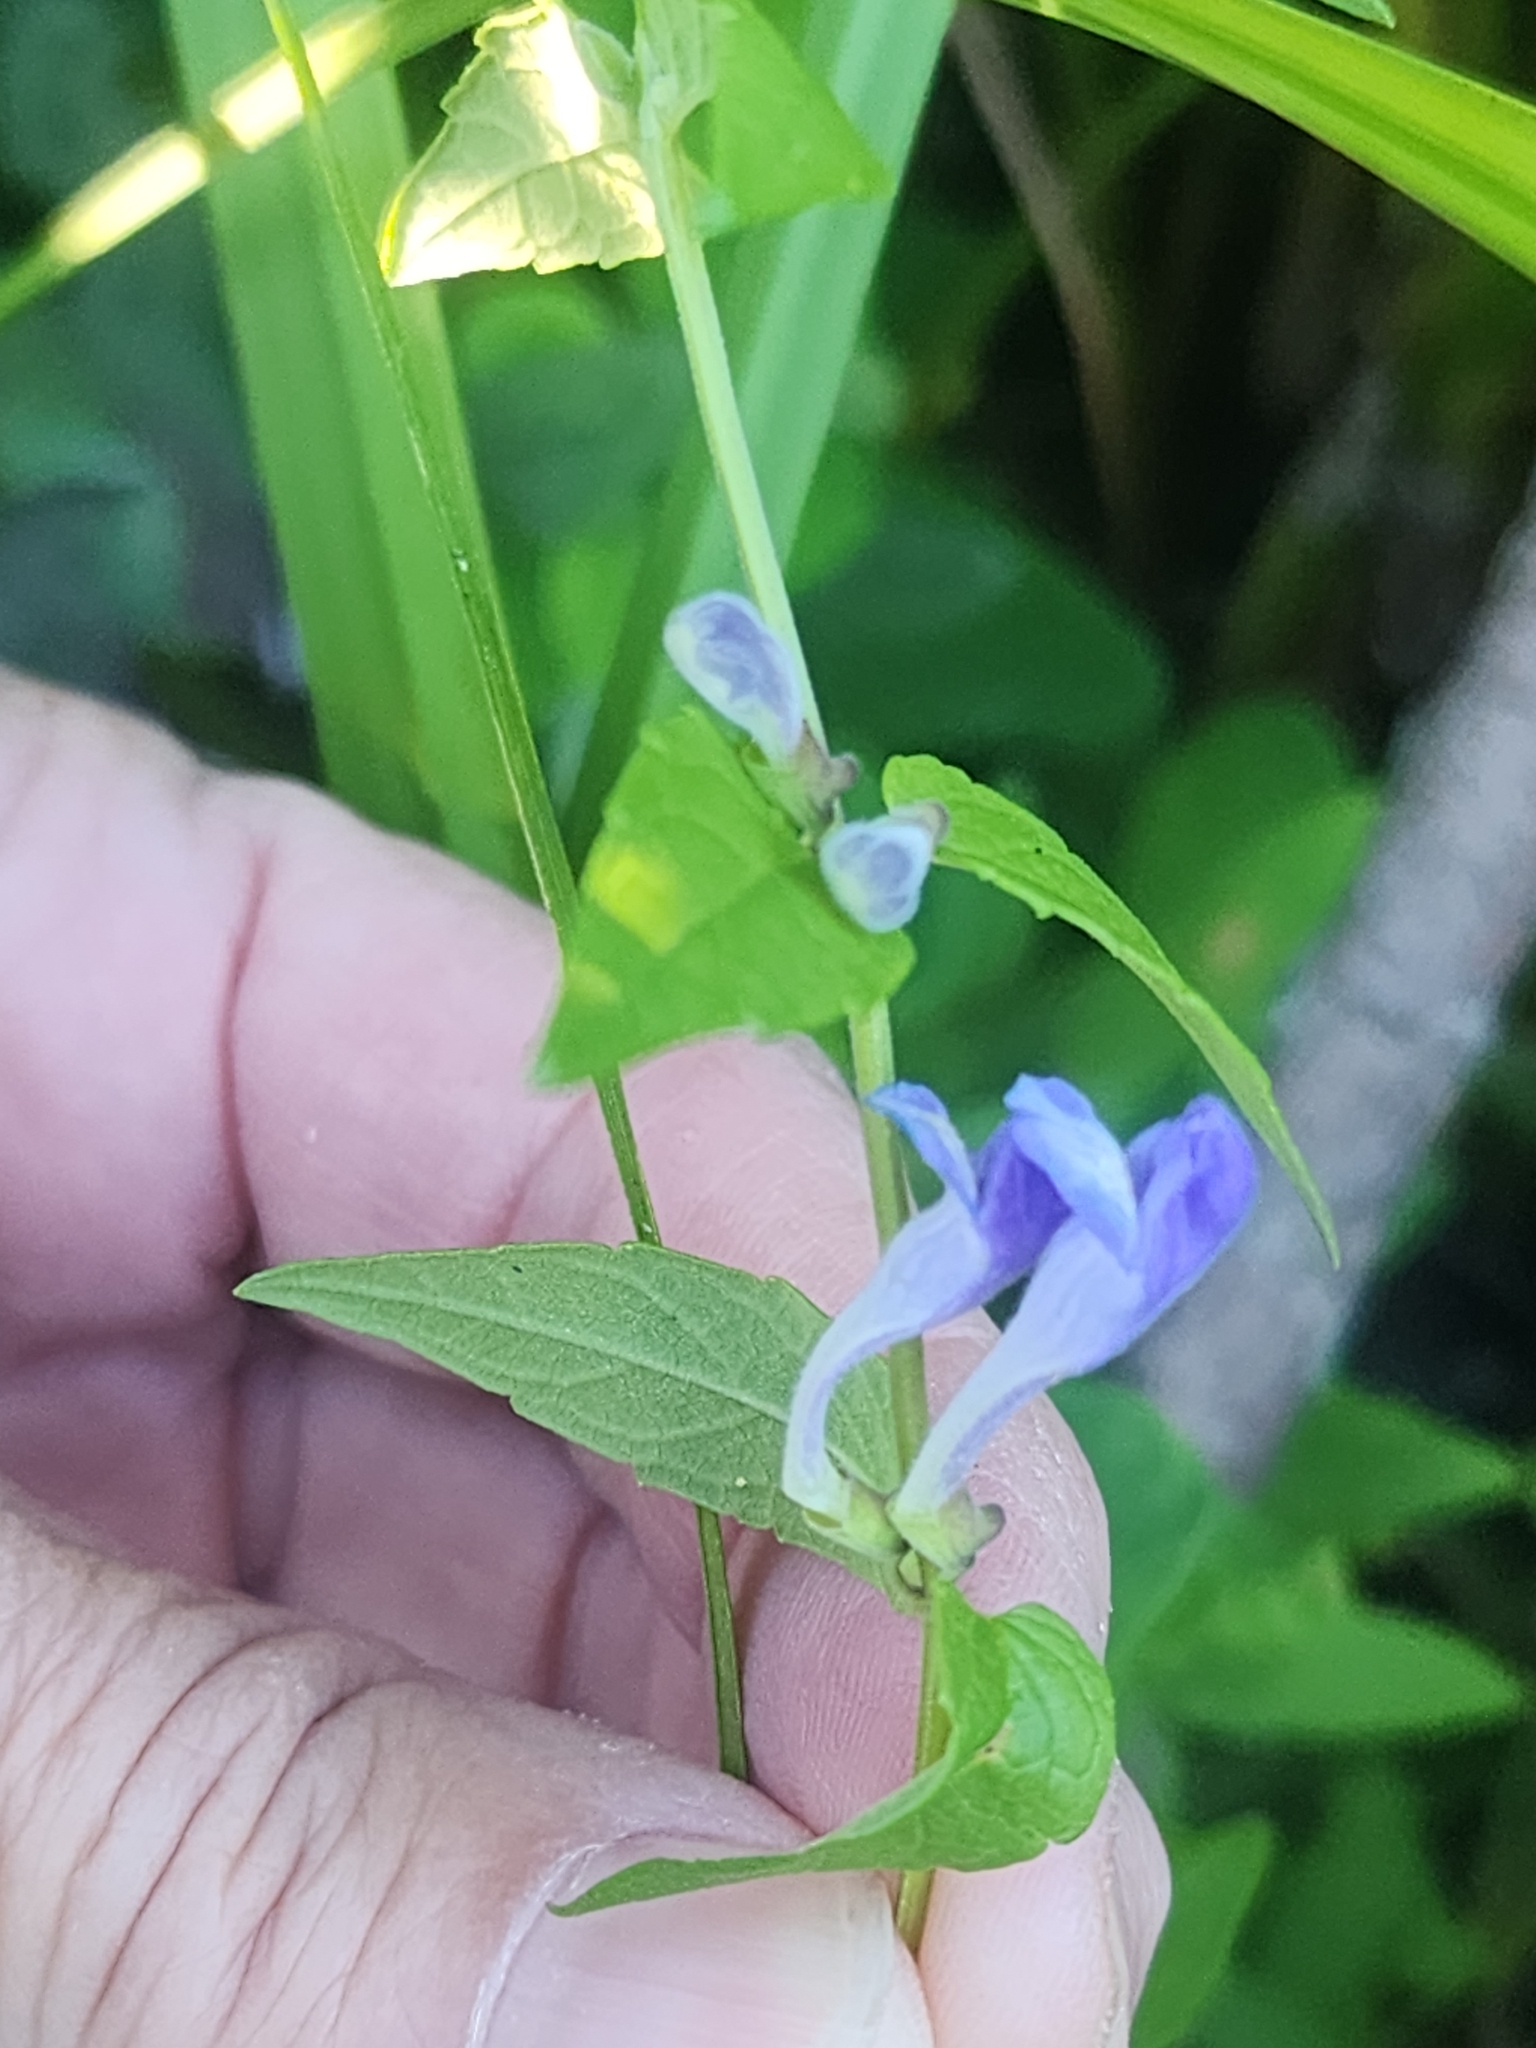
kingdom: Plantae
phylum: Tracheophyta
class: Magnoliopsida
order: Lamiales
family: Lamiaceae
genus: Scutellaria
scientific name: Scutellaria galericulata
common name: Skullcap
